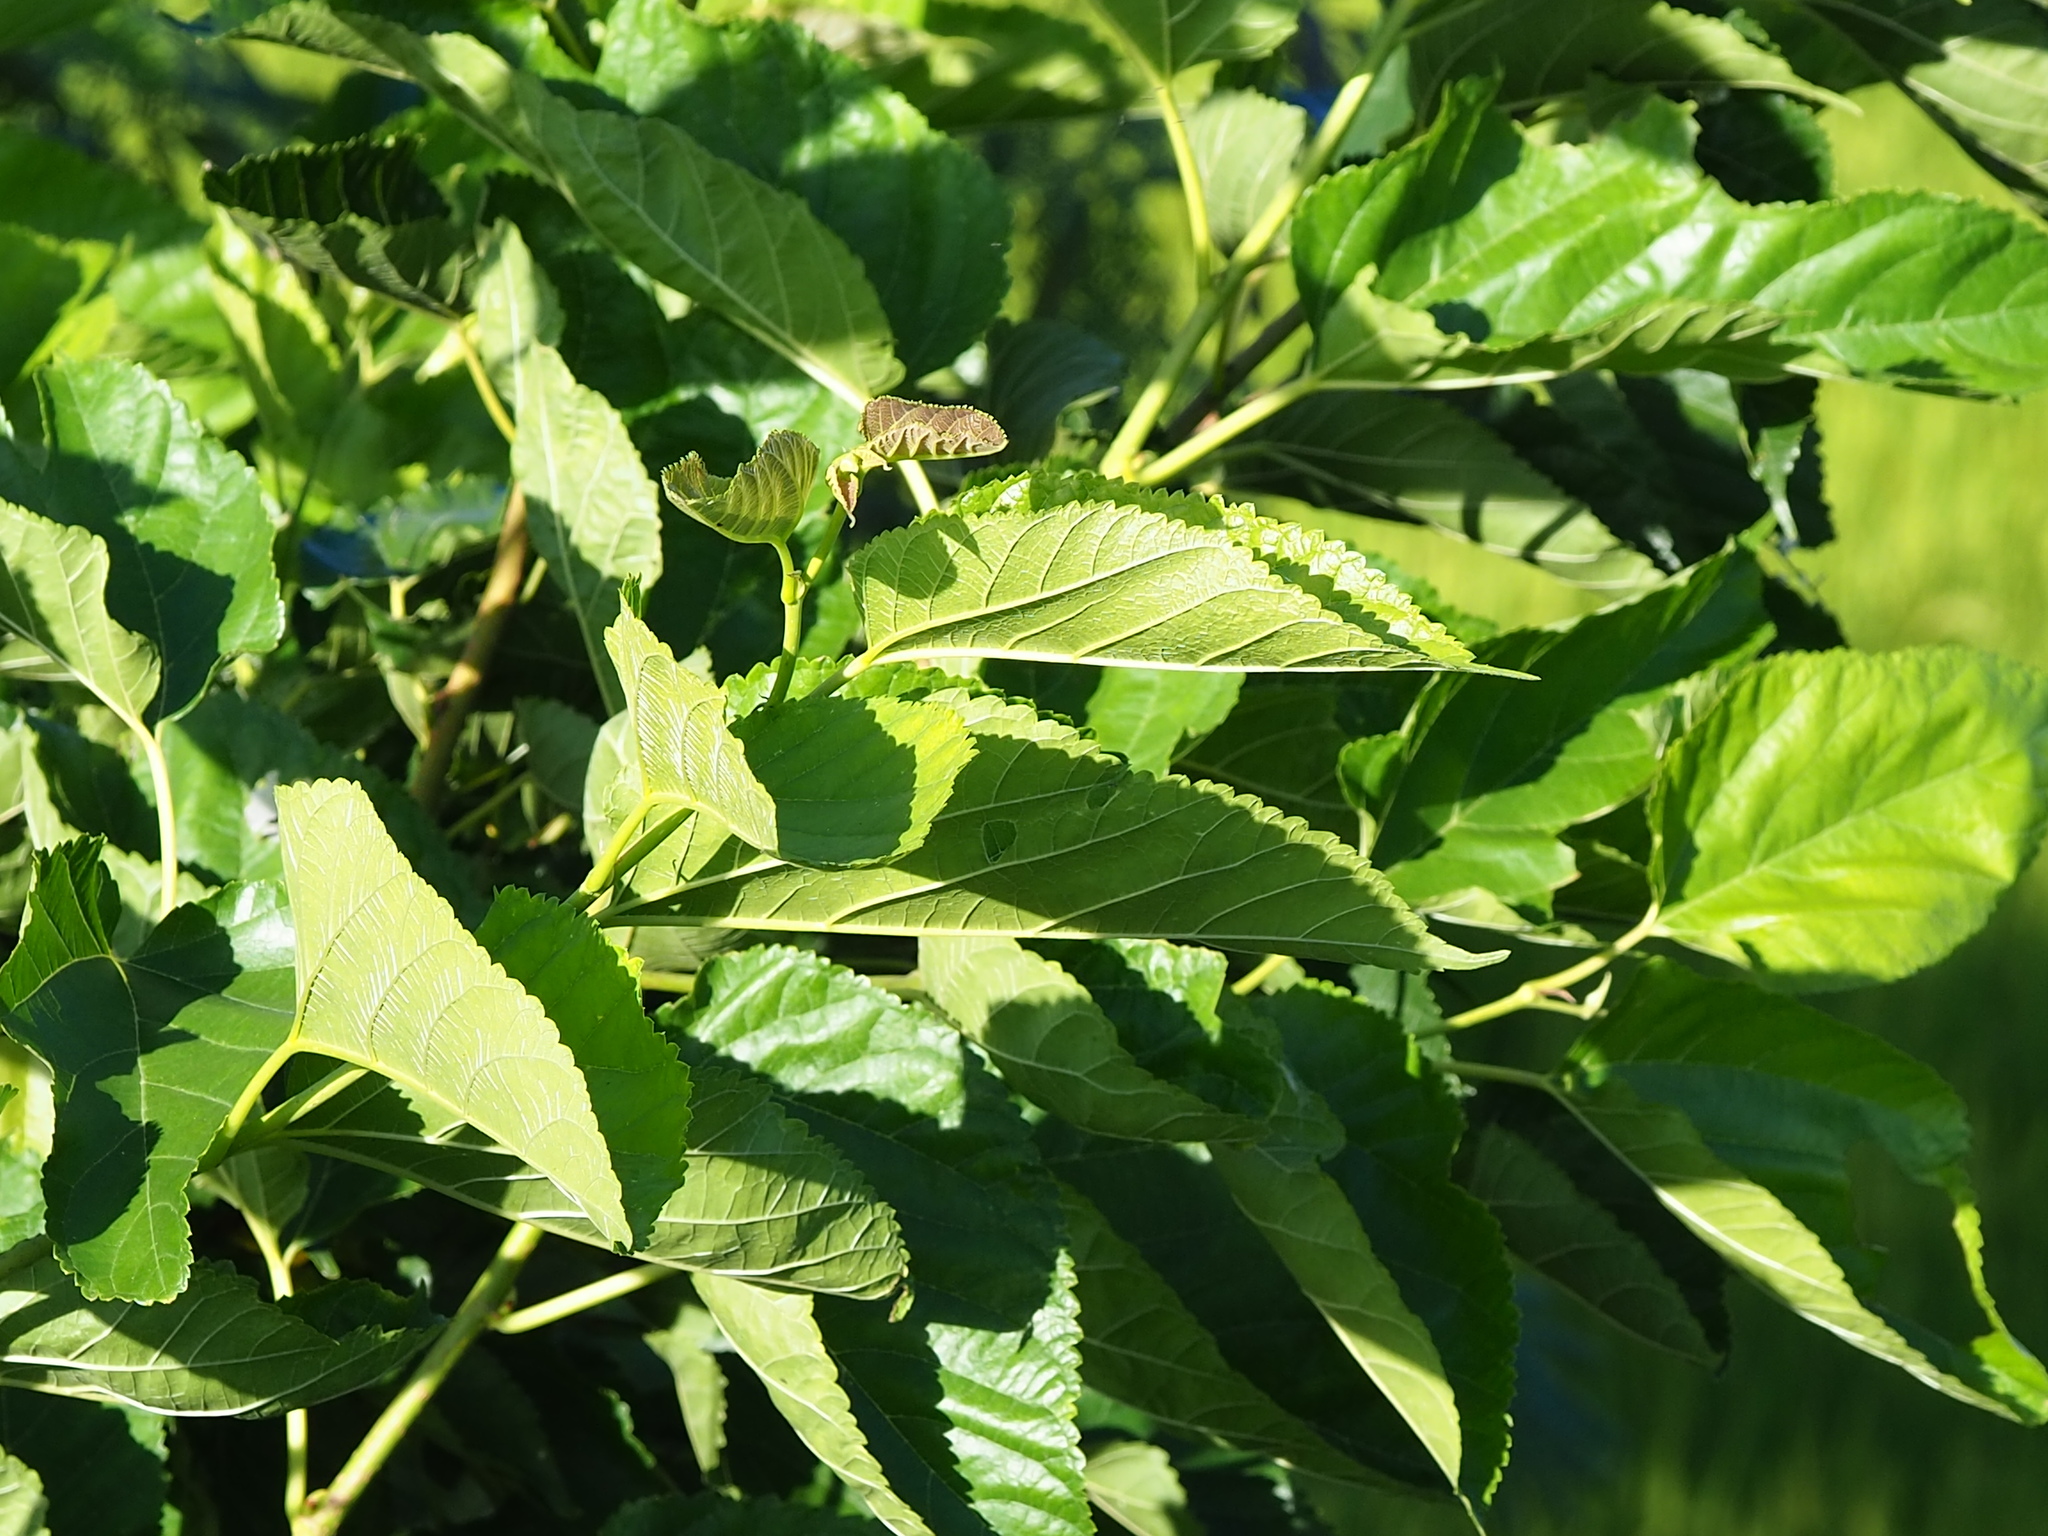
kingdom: Plantae
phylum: Tracheophyta
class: Magnoliopsida
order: Rosales
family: Moraceae
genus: Morus
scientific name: Morus indica
